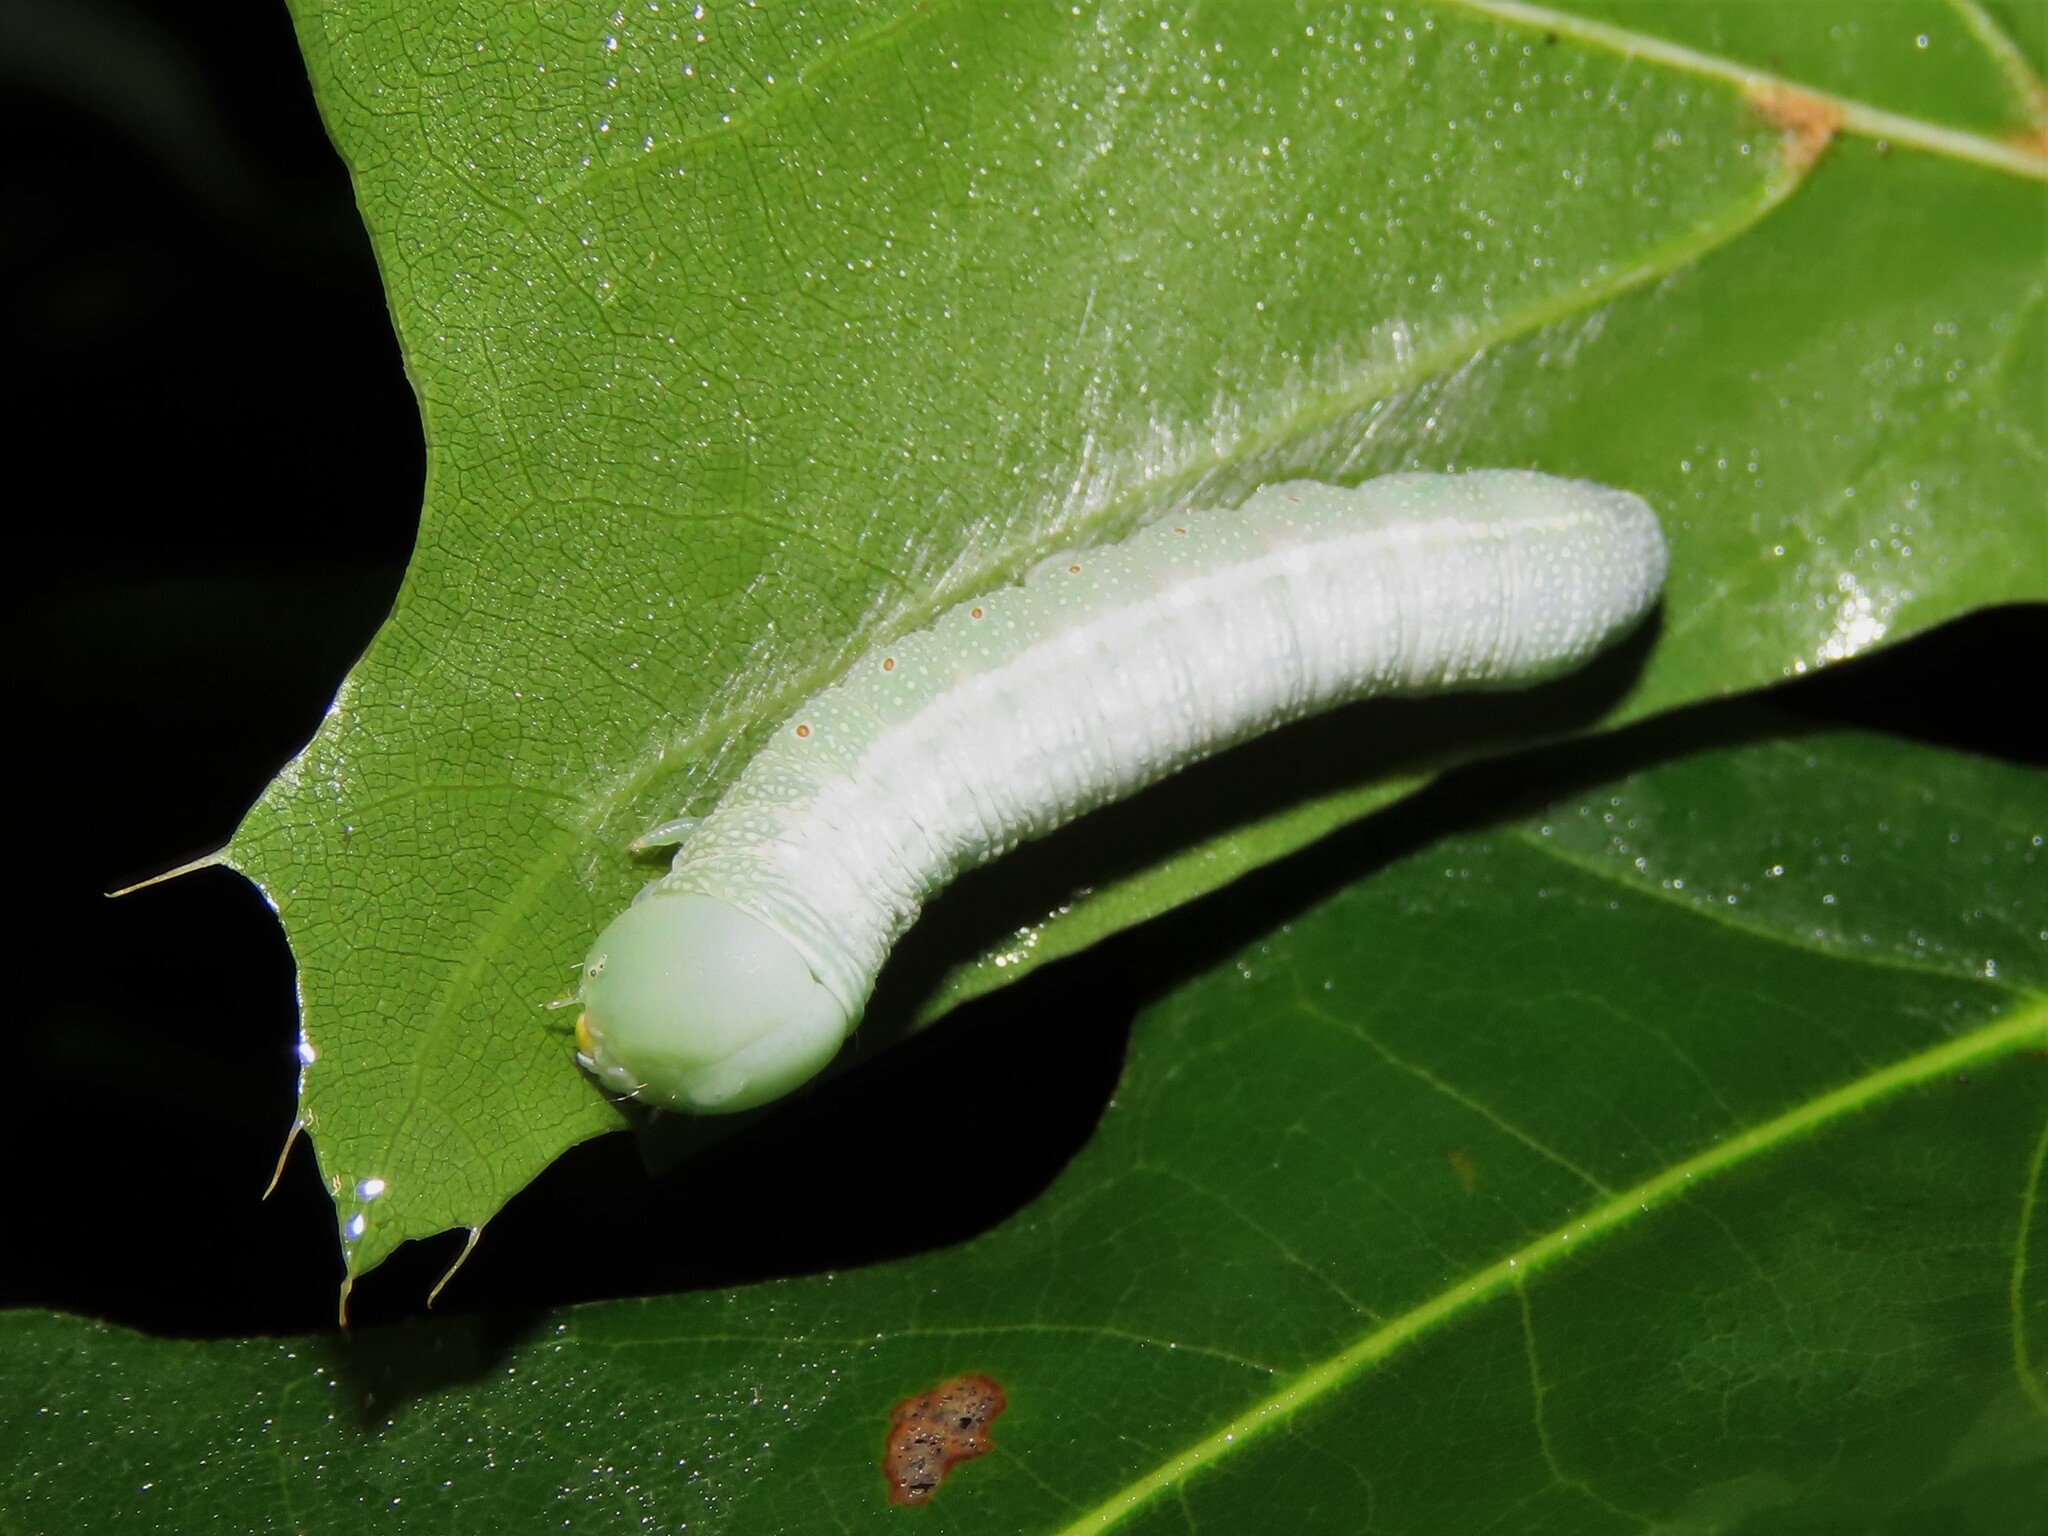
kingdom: Animalia
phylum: Arthropoda
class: Insecta
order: Lepidoptera
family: Notodontidae
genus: Nadata
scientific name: Nadata gibbosa
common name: White-dotted prominent
